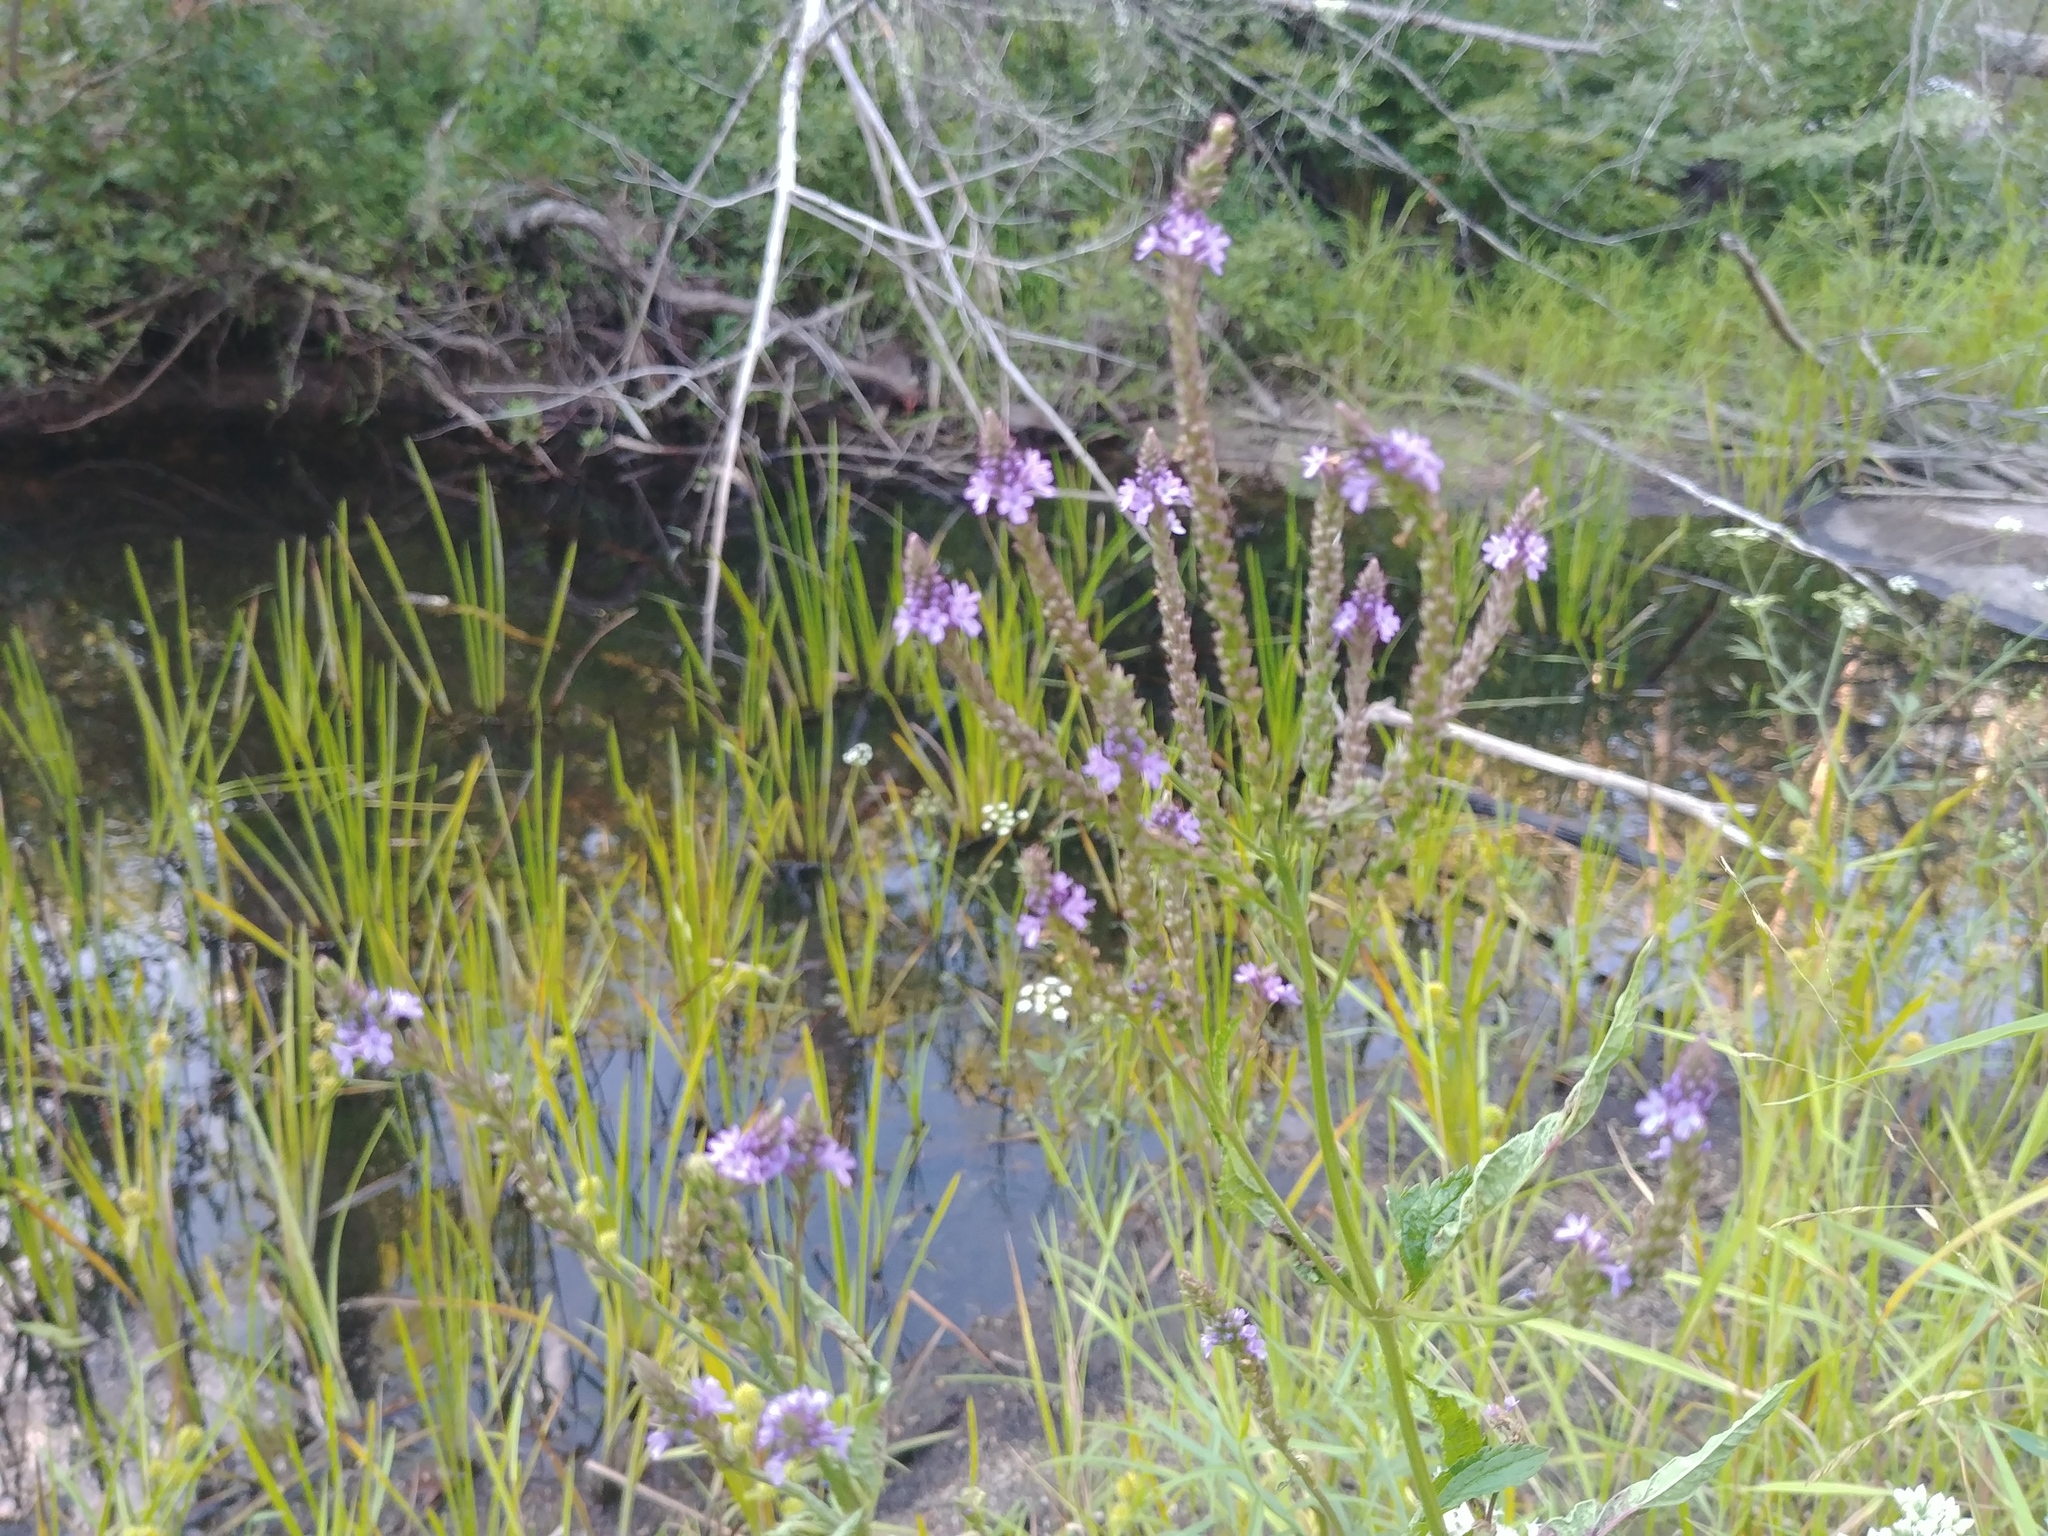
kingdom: Plantae
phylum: Tracheophyta
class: Magnoliopsida
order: Lamiales
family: Verbenaceae
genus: Verbena
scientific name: Verbena hastata
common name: American blue vervain
